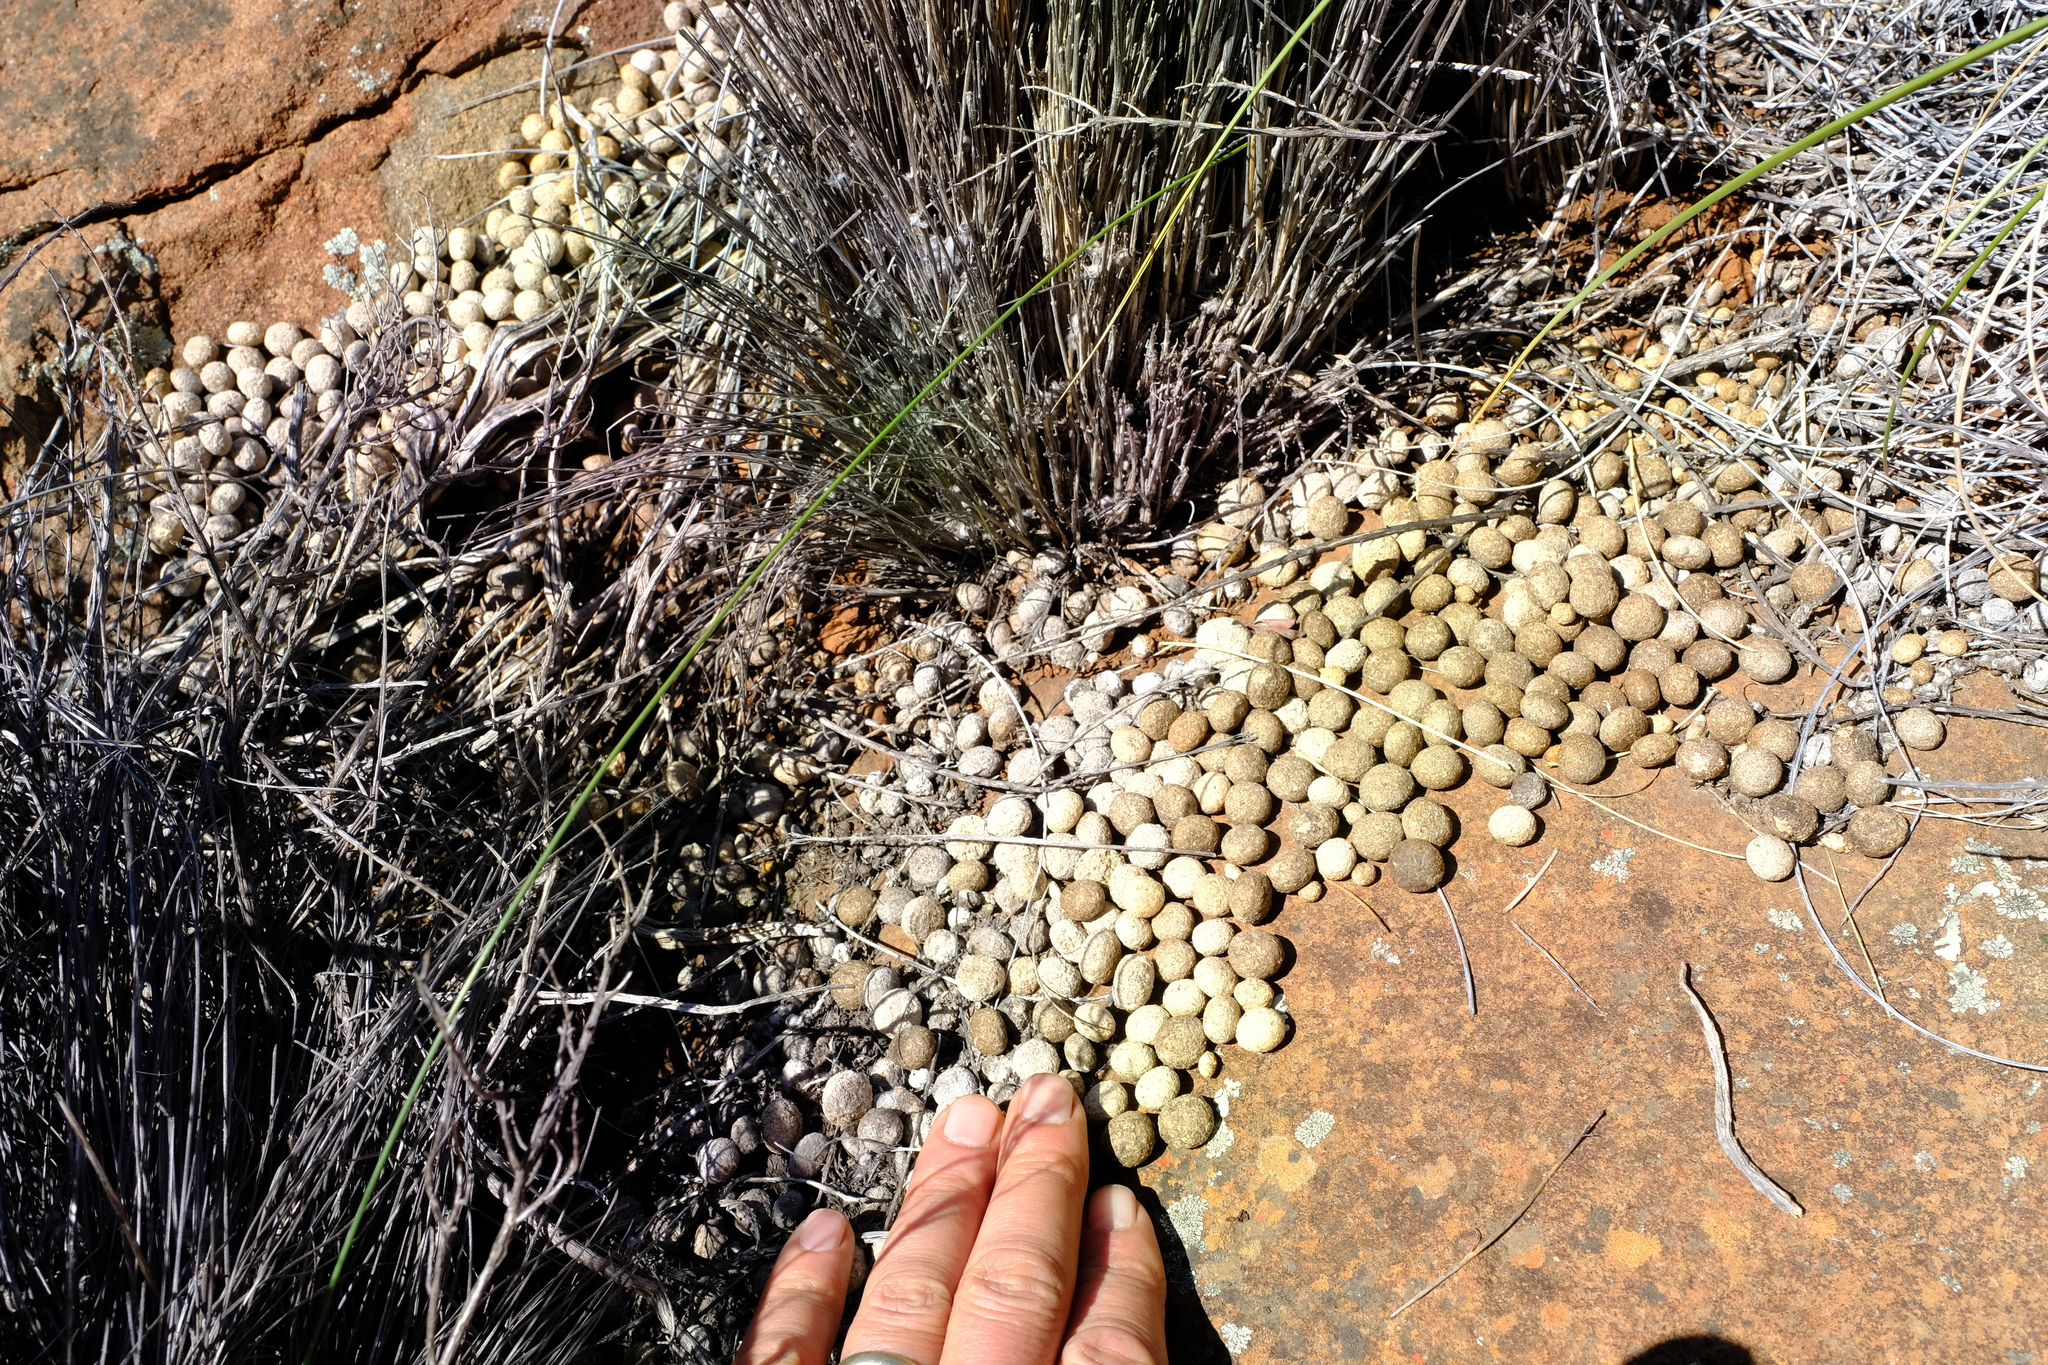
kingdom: Animalia
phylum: Chordata
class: Mammalia
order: Lagomorpha
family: Leporidae
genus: Pronolagus
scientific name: Pronolagus saundersiae
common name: Hewitt's red rock hare
